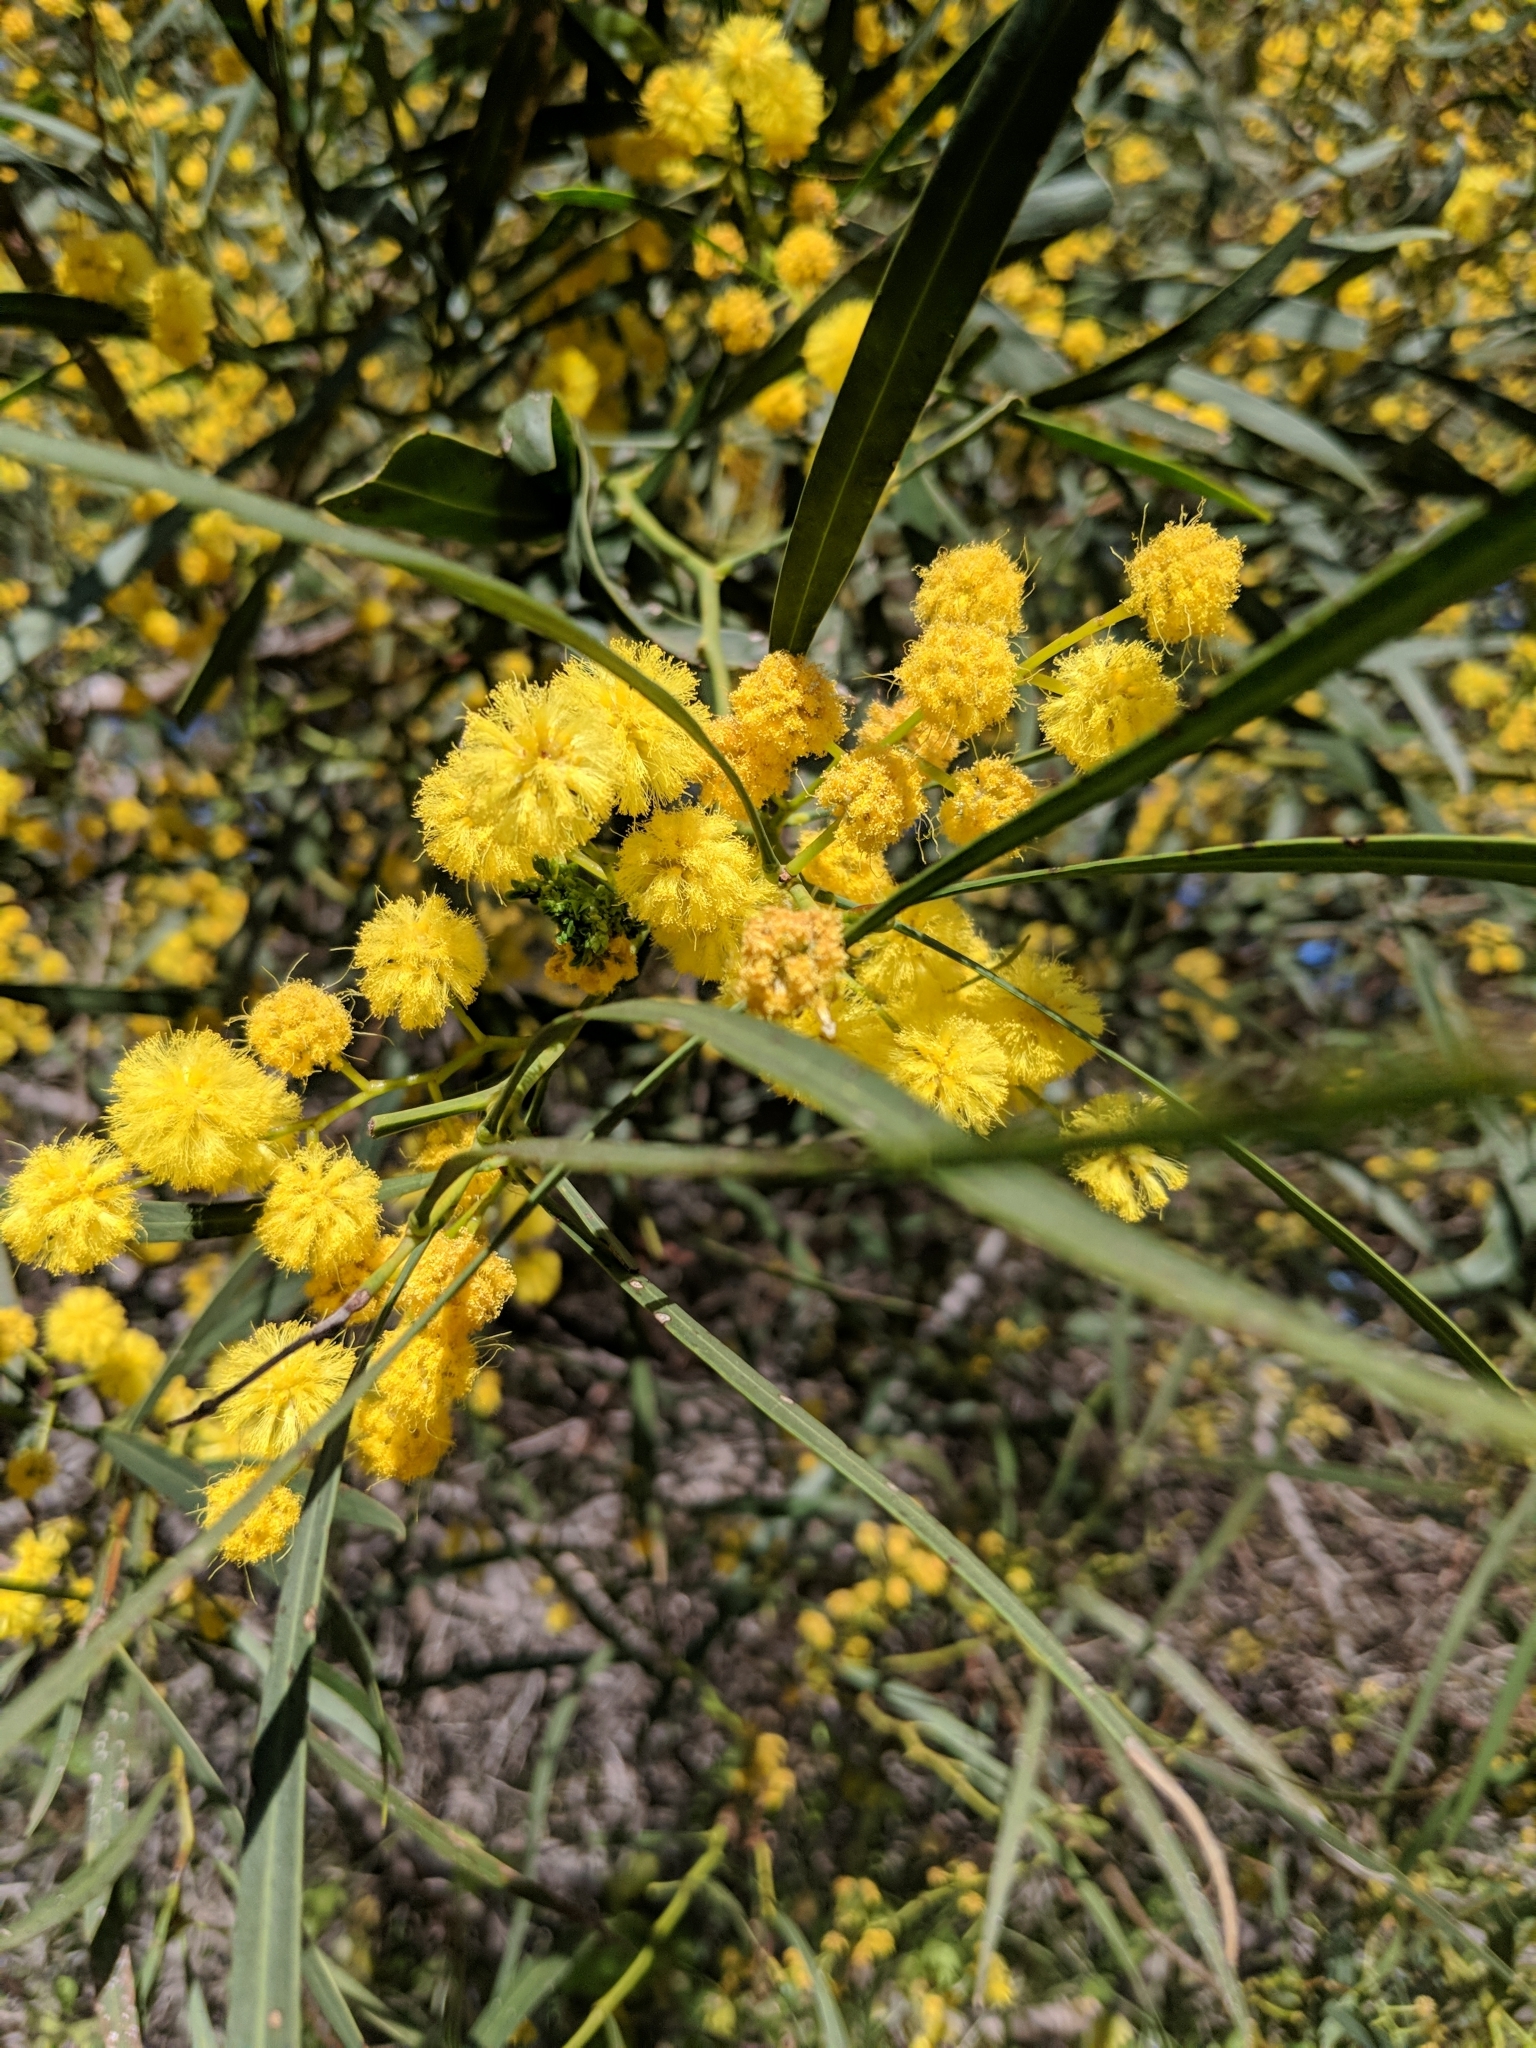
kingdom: Plantae
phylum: Tracheophyta
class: Magnoliopsida
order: Fabales
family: Fabaceae
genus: Acacia
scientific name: Acacia retinodes
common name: Silver wattle
